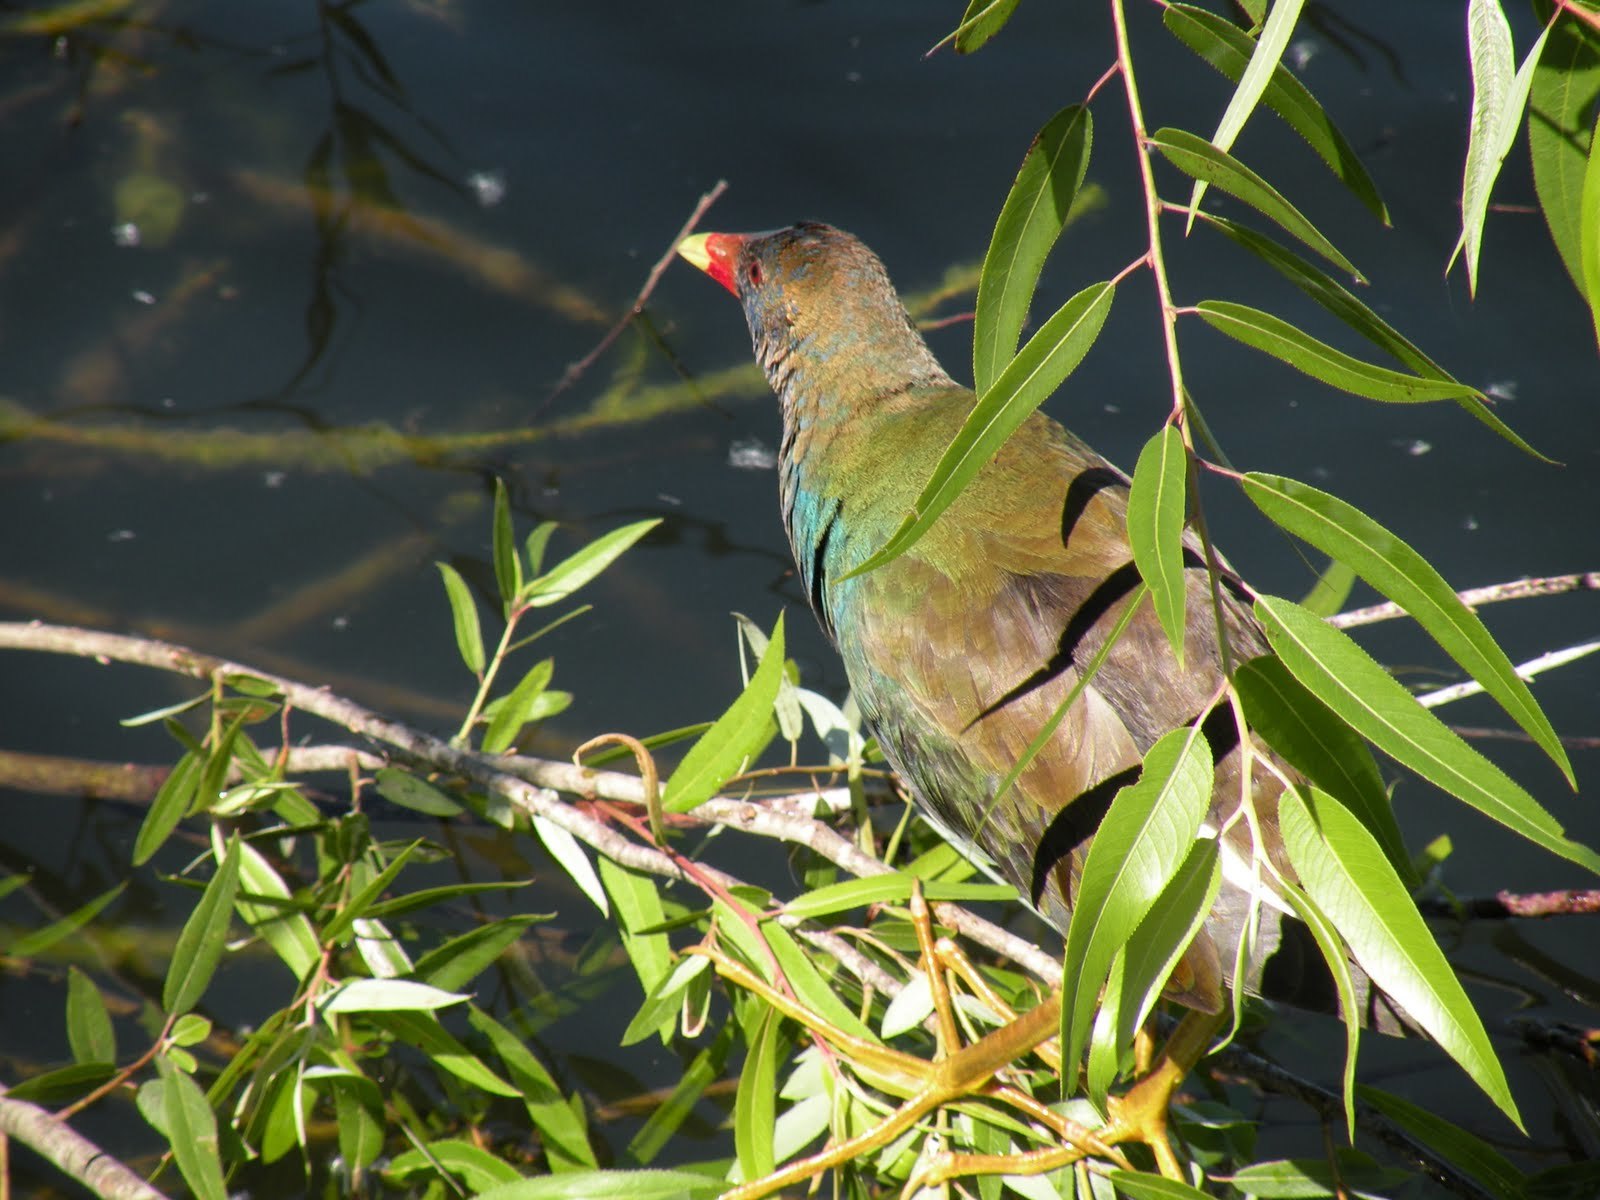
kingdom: Animalia
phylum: Chordata
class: Aves
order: Gruiformes
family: Rallidae
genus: Porphyrio
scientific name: Porphyrio martinica
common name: Purple gallinule
